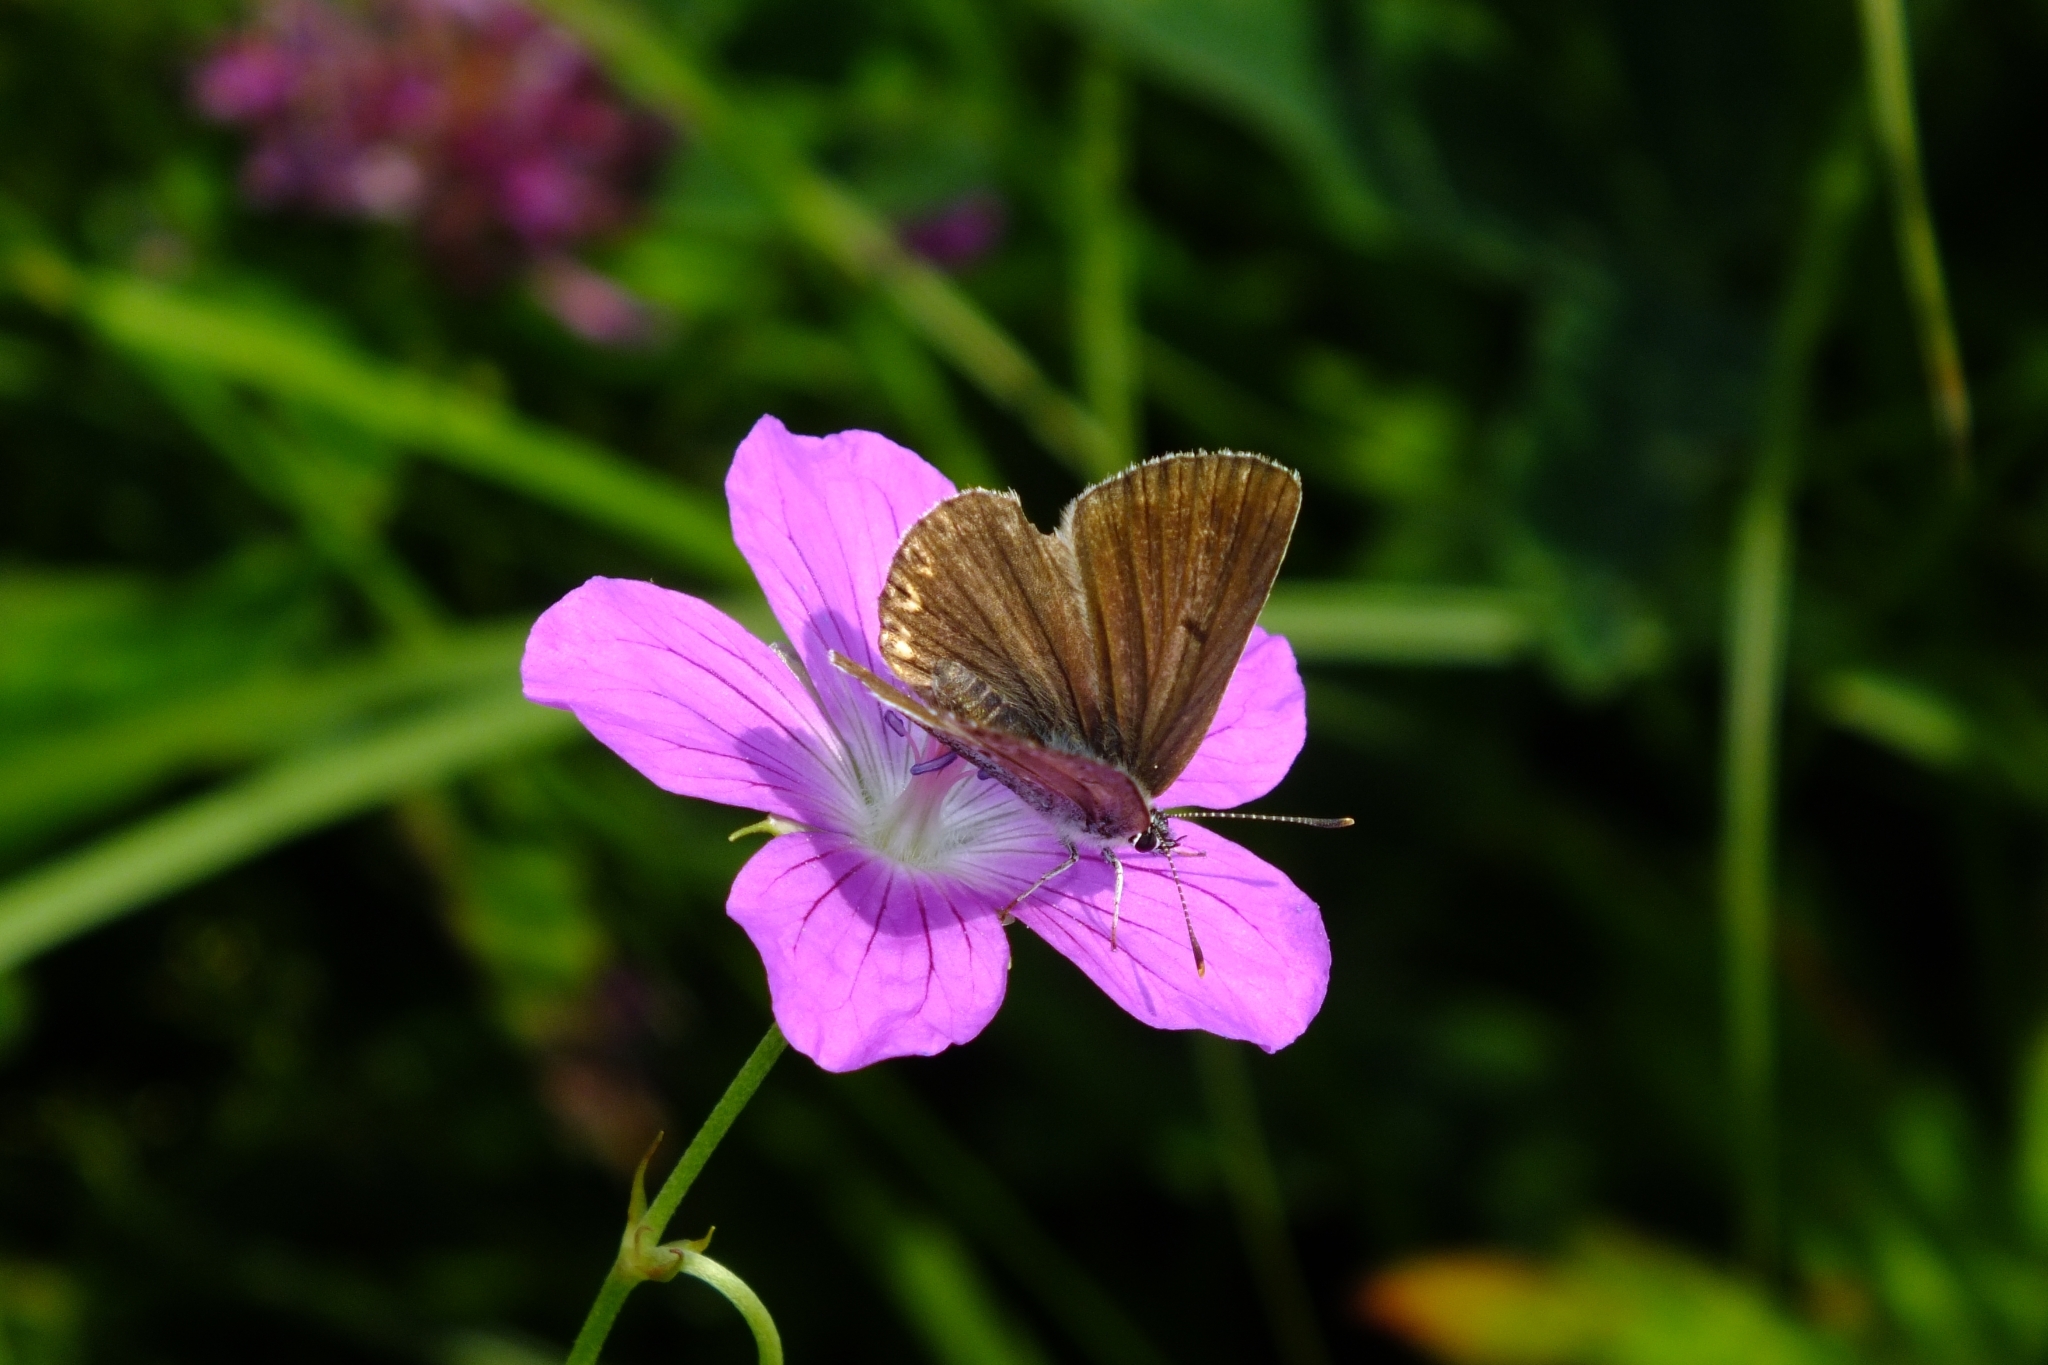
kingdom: Animalia
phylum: Arthropoda
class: Insecta
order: Lepidoptera
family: Lycaenidae
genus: Eumedonia
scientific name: Eumedonia eumedon
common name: Geranium argus
